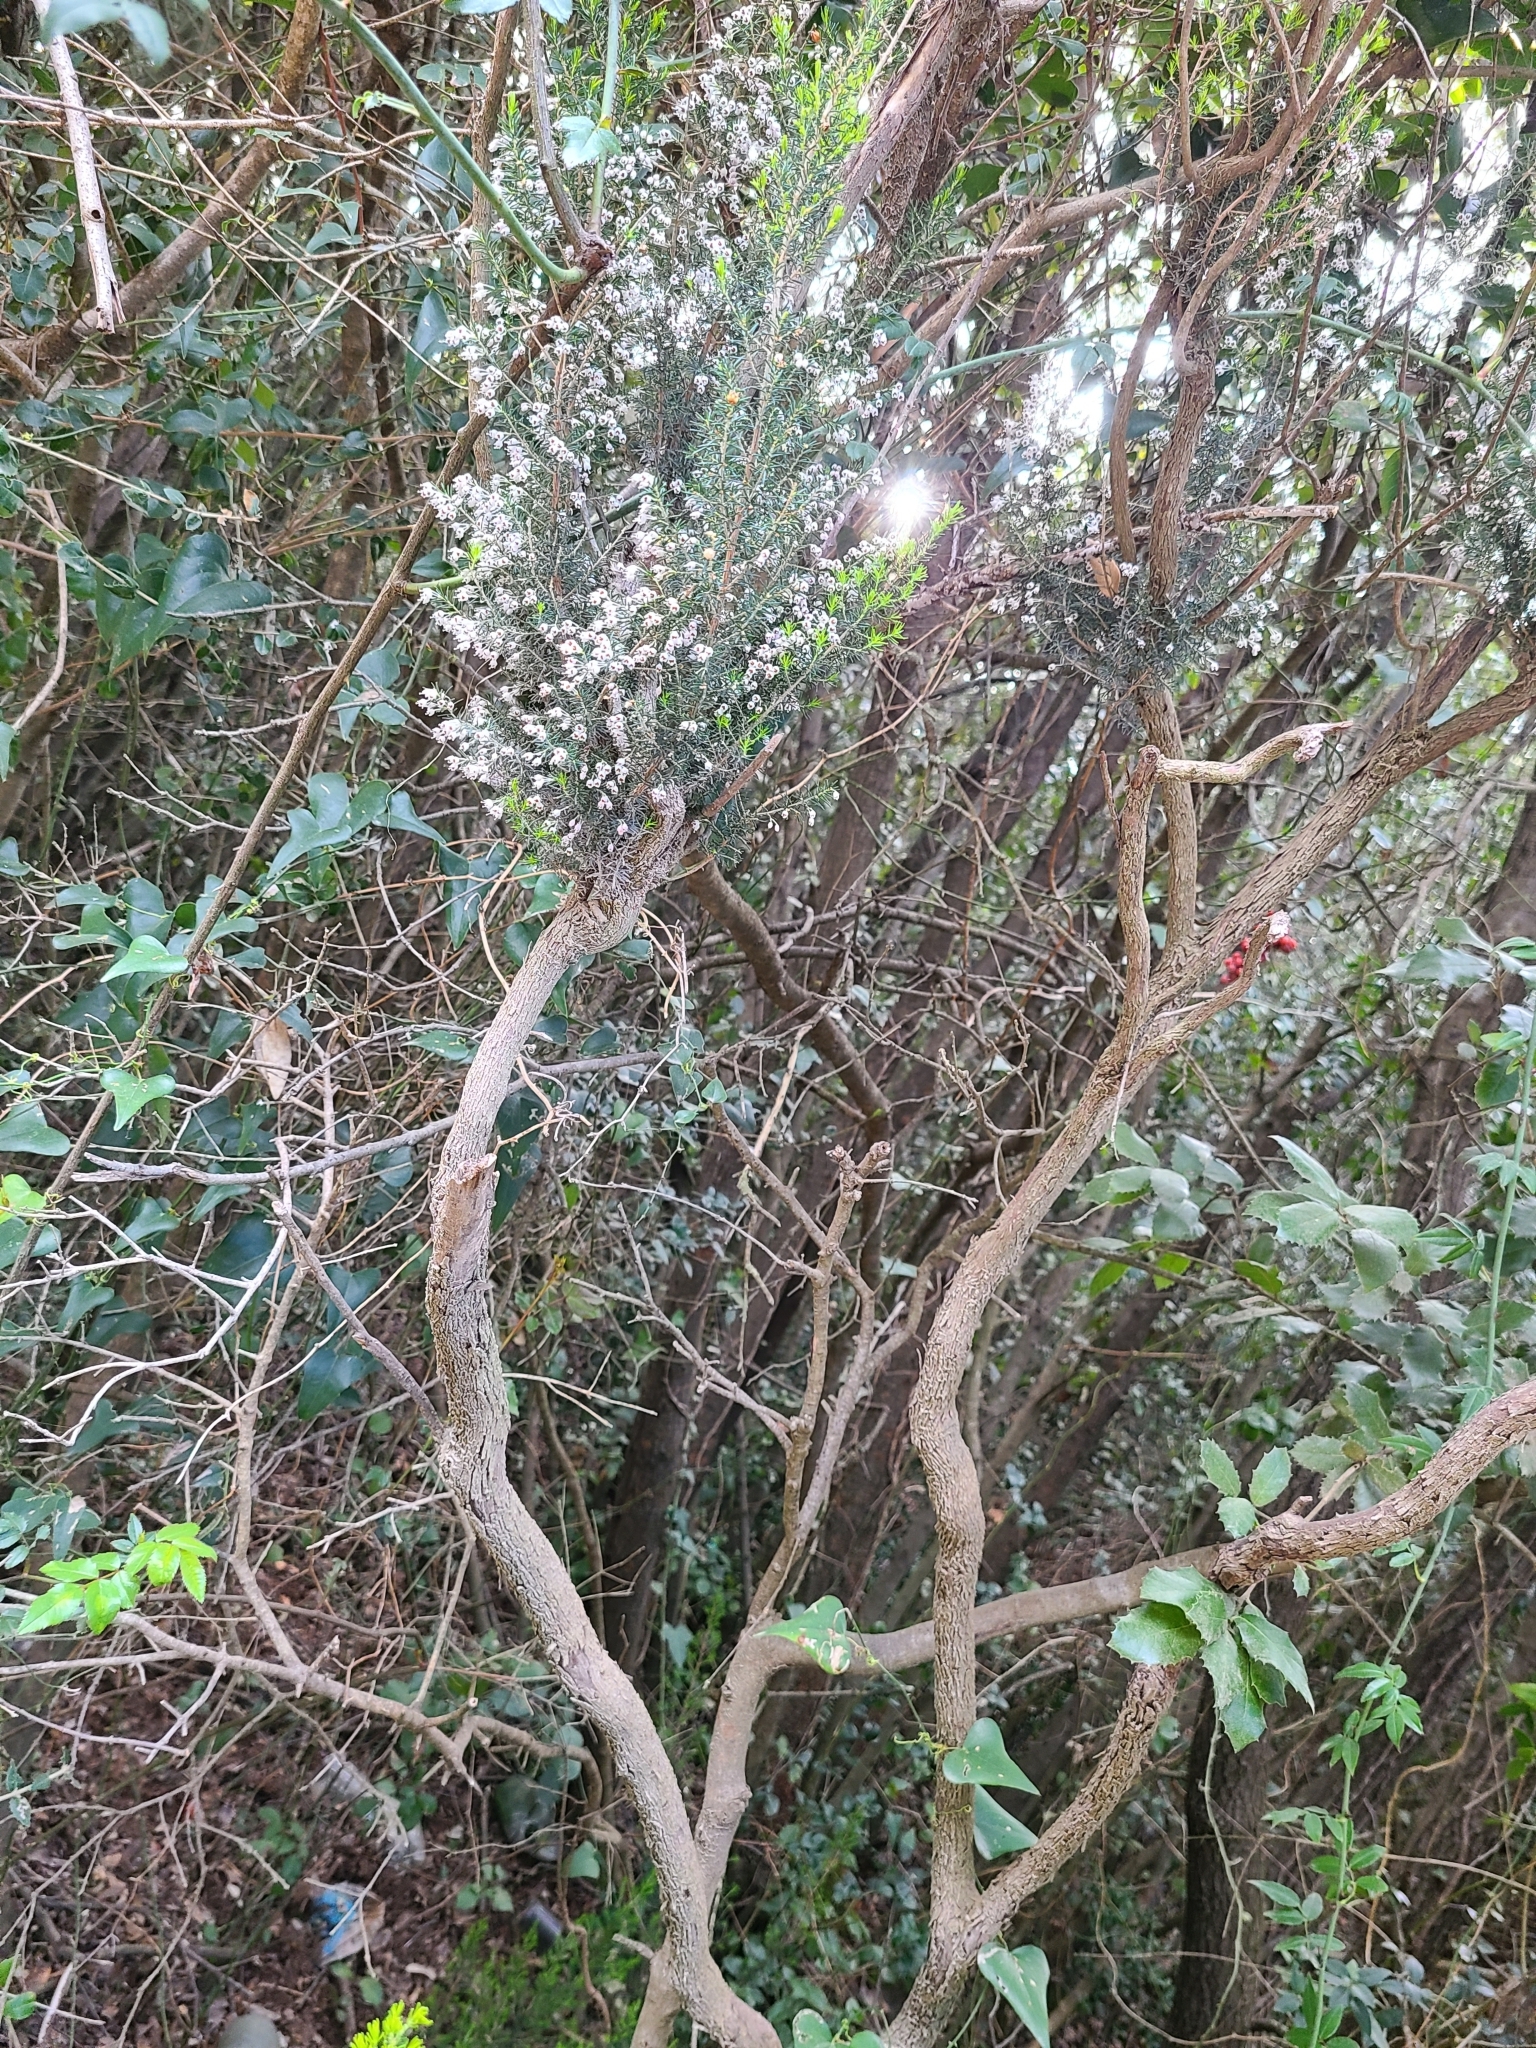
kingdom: Plantae
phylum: Tracheophyta
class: Magnoliopsida
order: Ericales
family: Ericaceae
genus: Erica
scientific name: Erica arborea
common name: Tree heath
